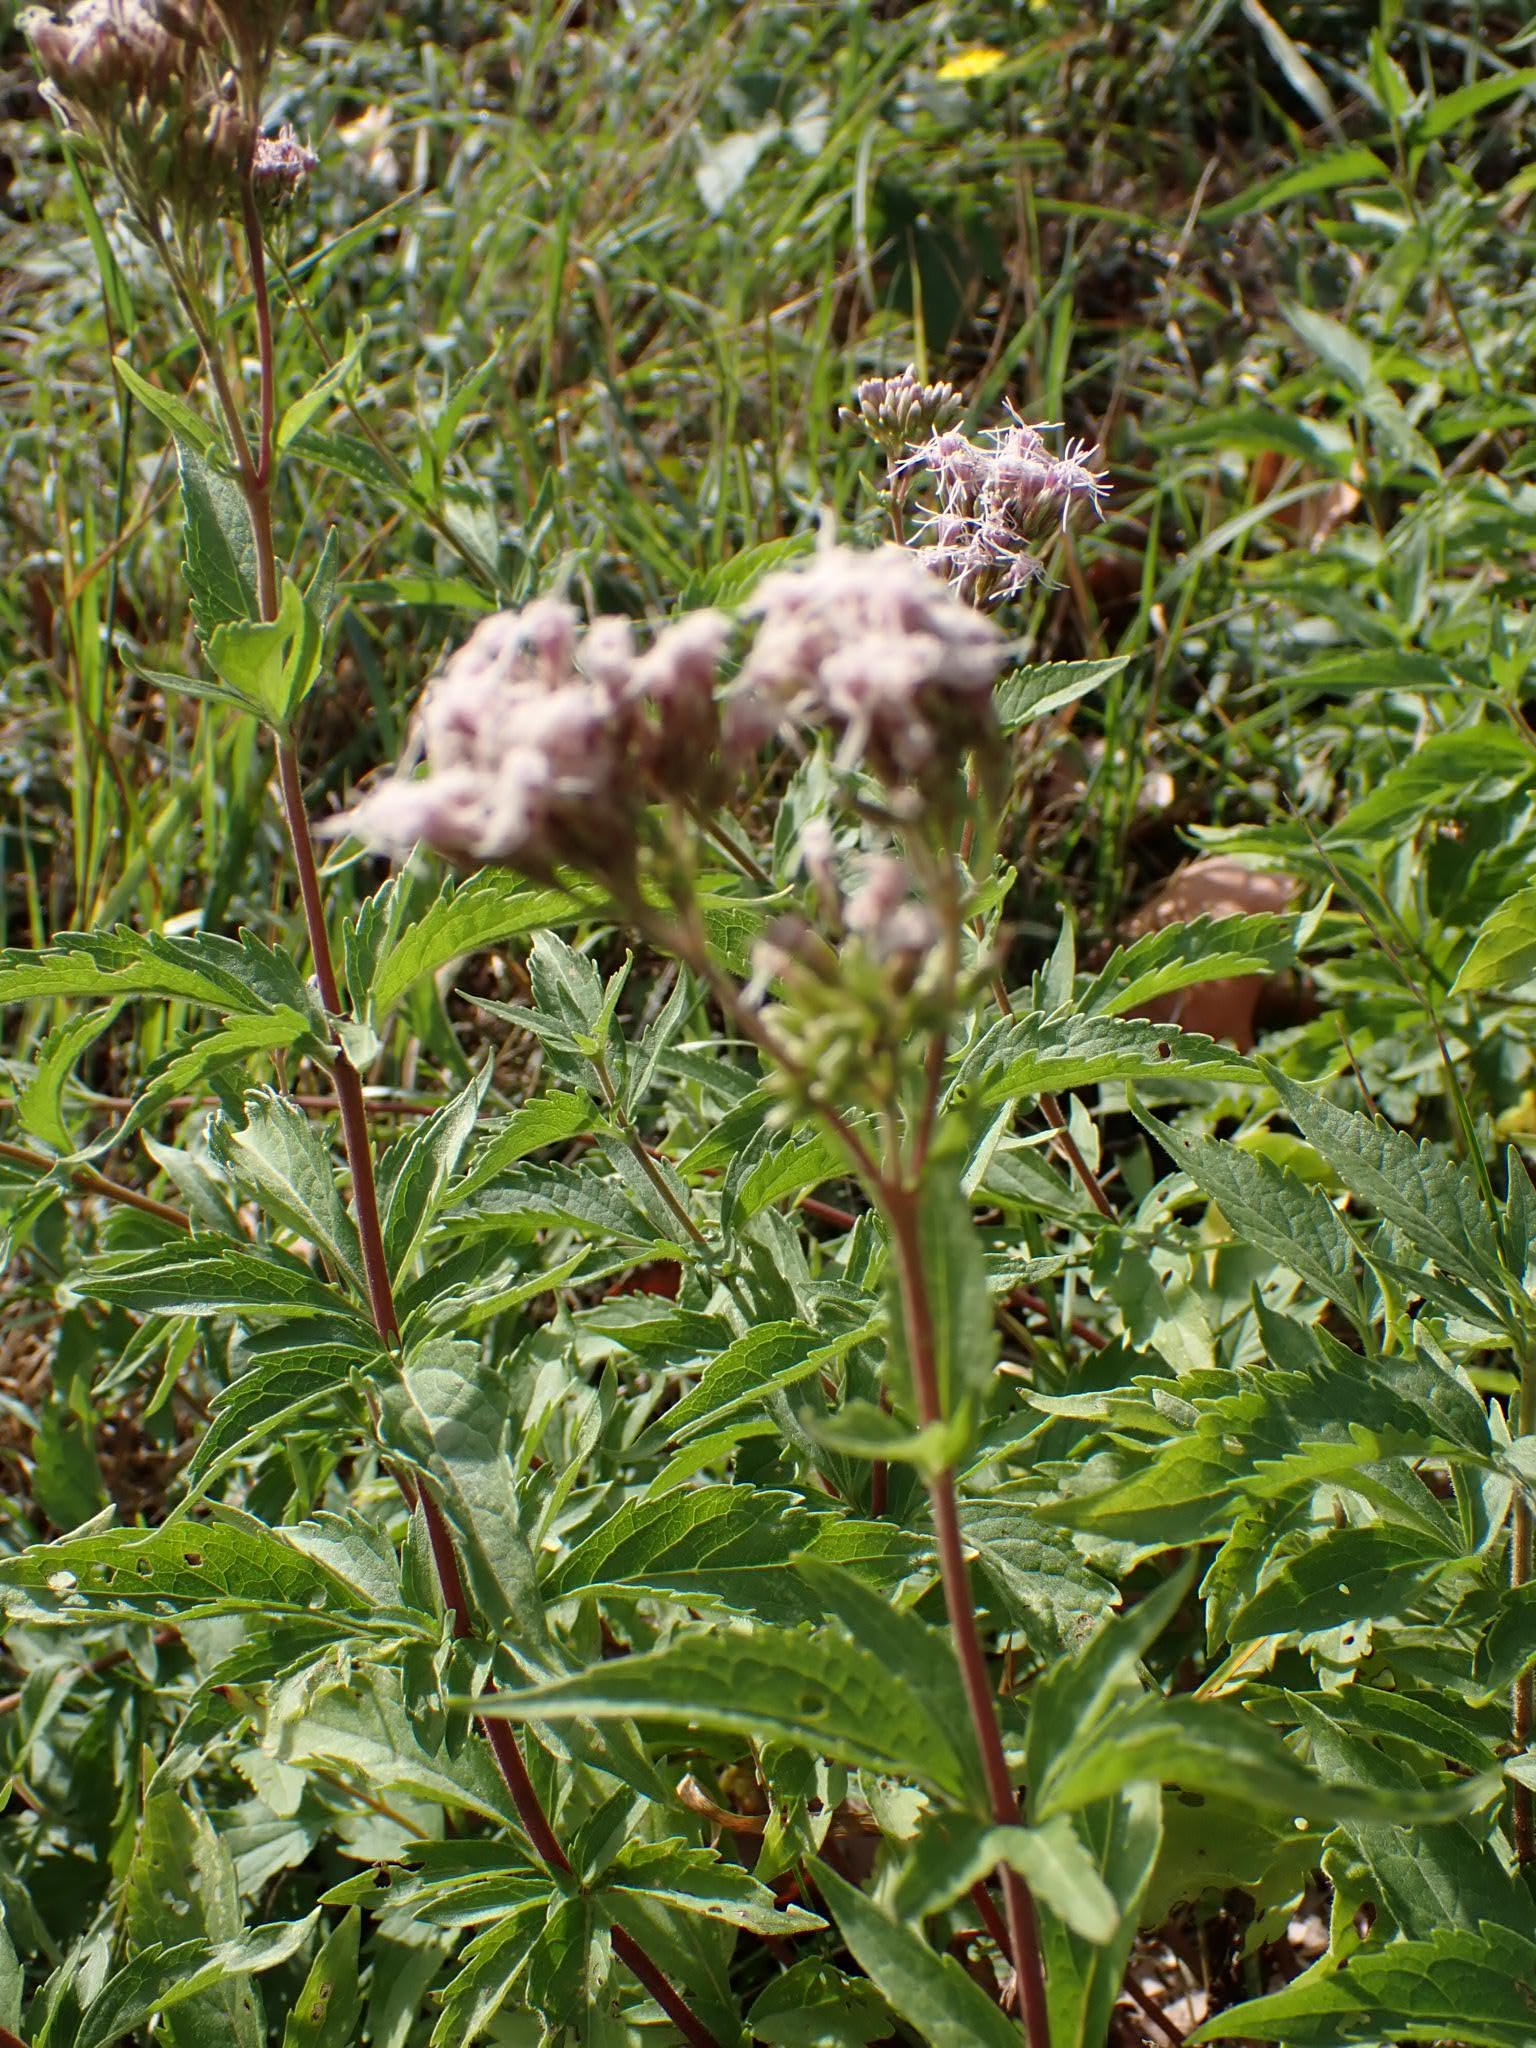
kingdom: Plantae
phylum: Tracheophyta
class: Magnoliopsida
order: Asterales
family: Asteraceae
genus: Eupatorium
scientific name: Eupatorium cannabinum
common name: Hemp-agrimony
